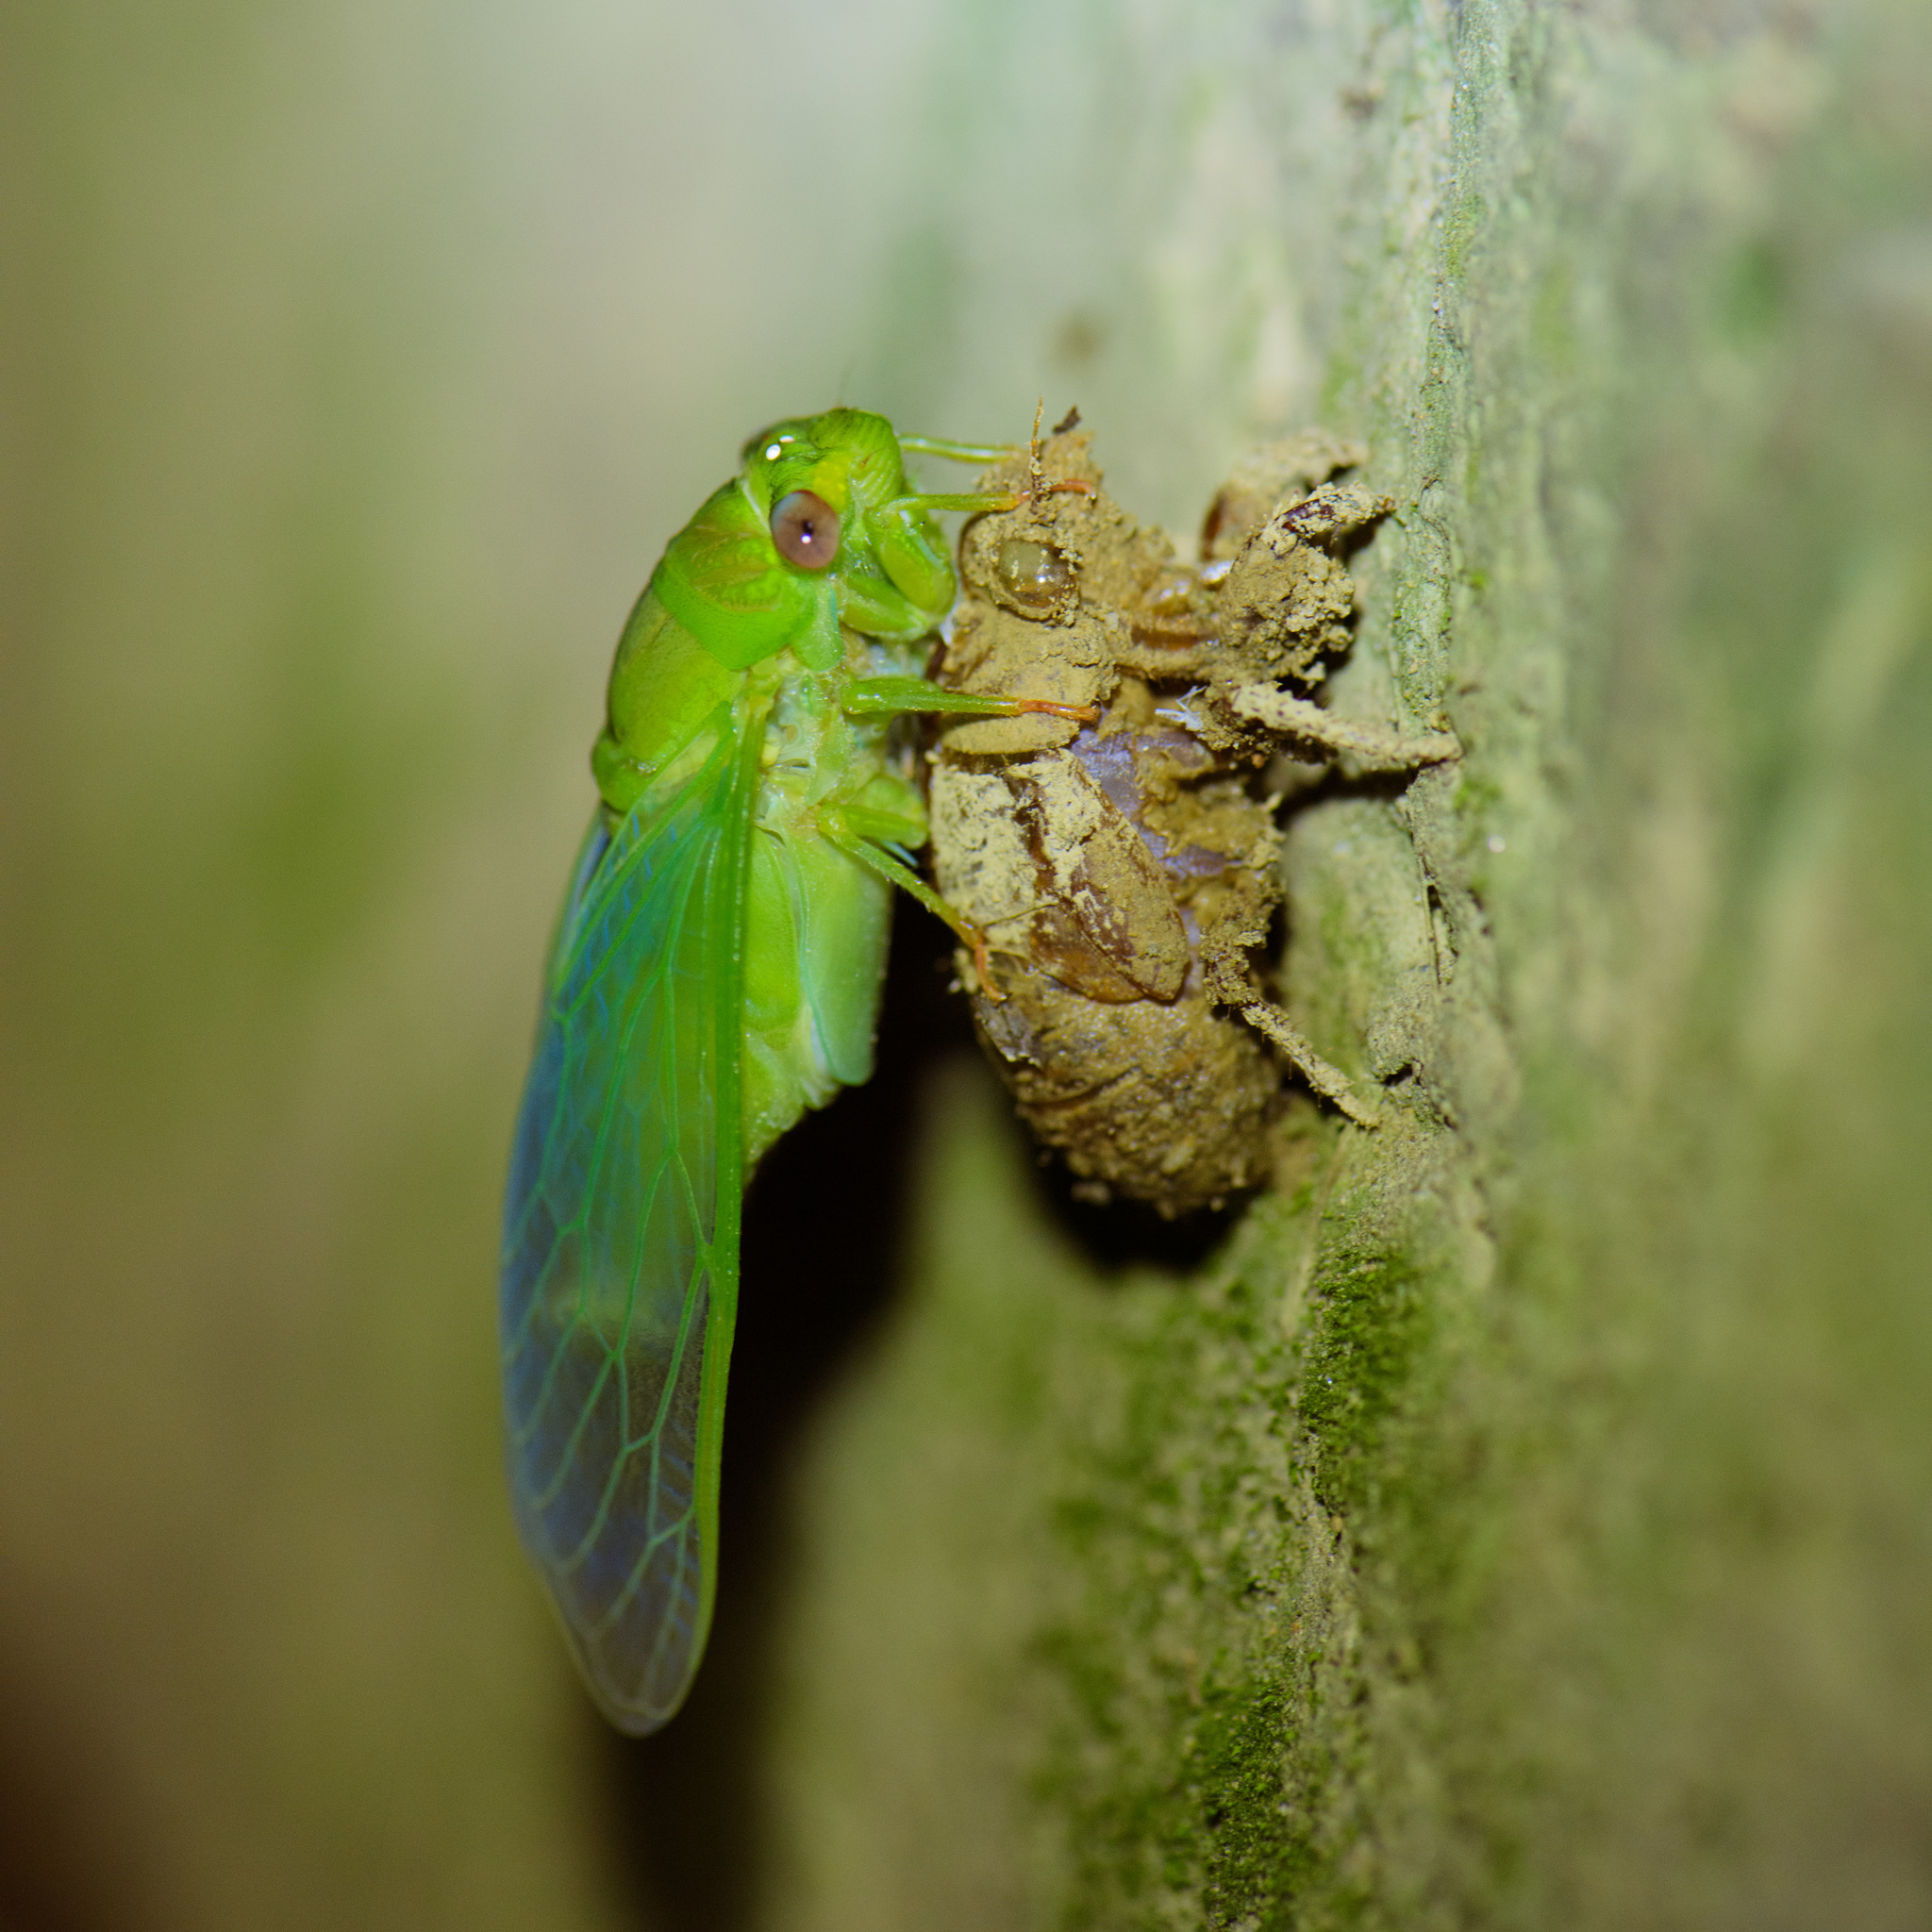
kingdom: Animalia
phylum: Arthropoda
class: Insecta
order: Hemiptera
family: Cicadidae
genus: Chremistica
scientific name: Chremistica ochracea
